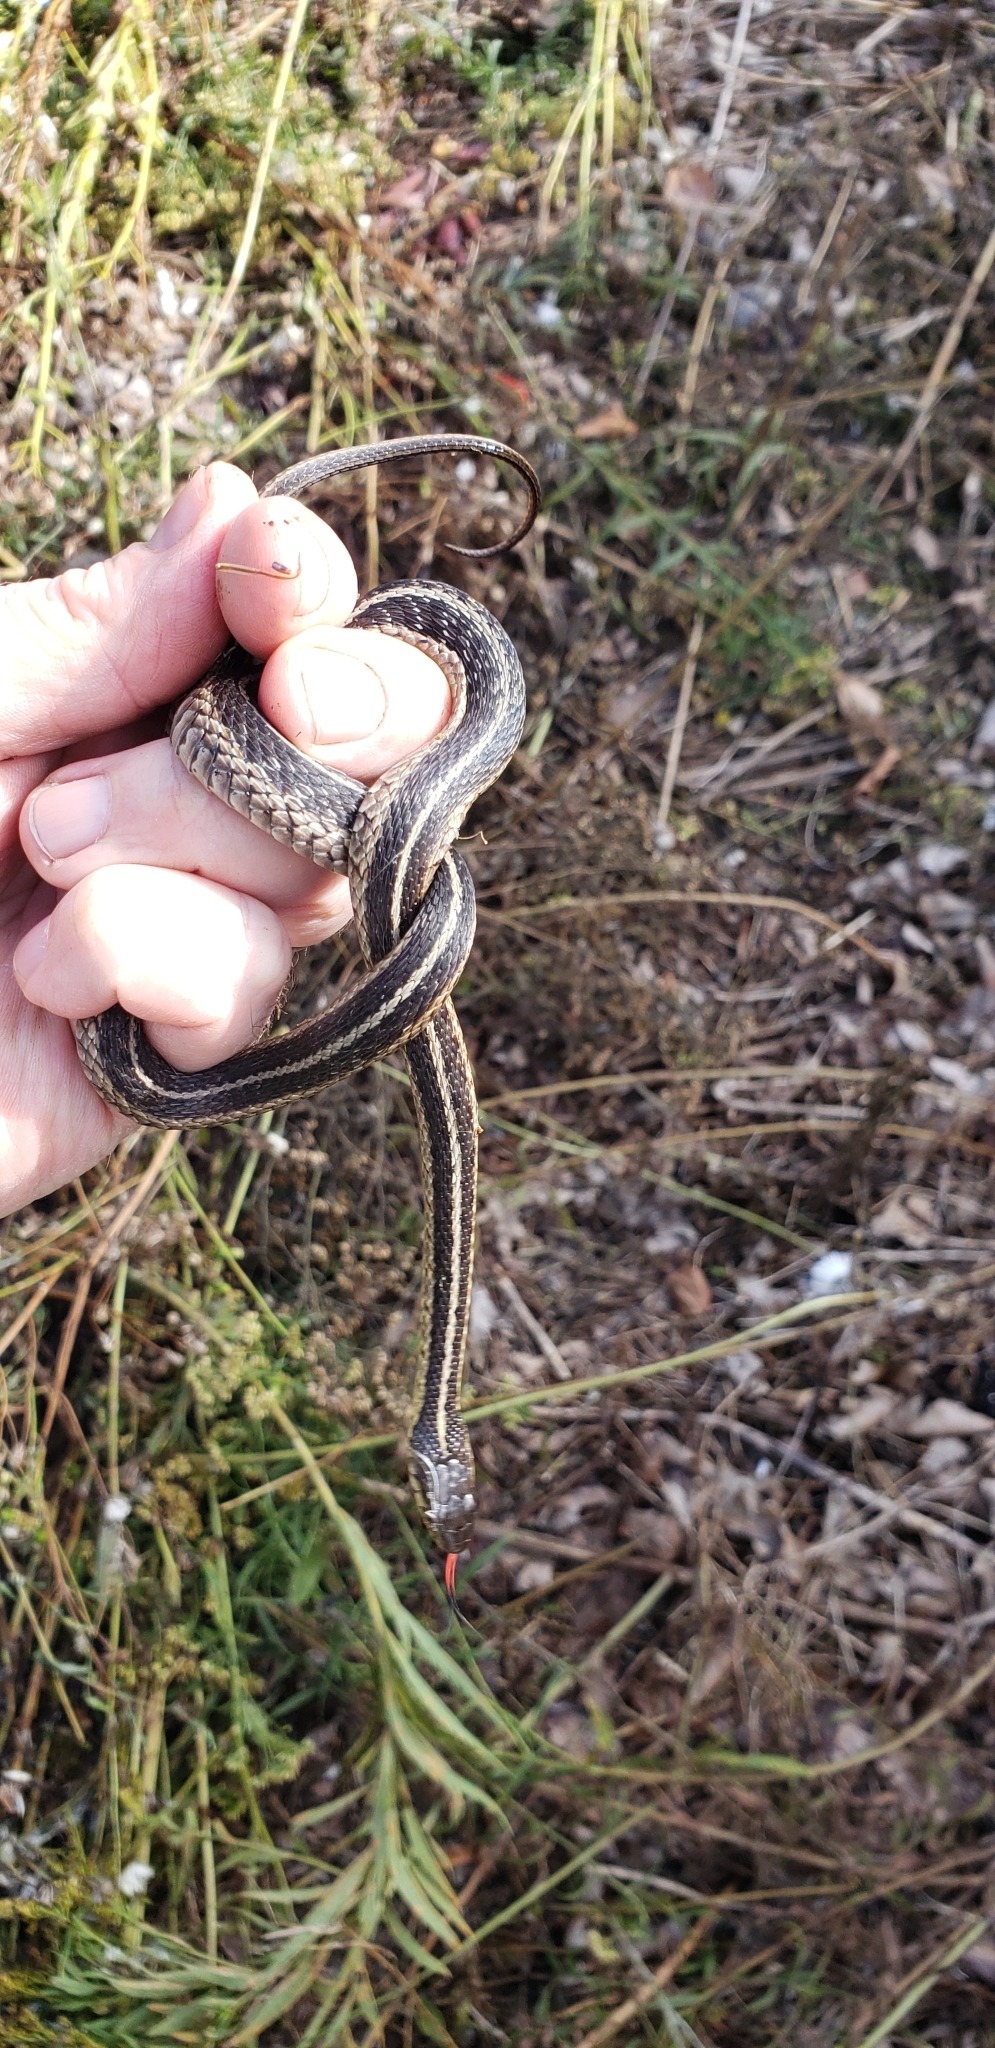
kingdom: Animalia
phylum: Chordata
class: Squamata
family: Colubridae
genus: Thamnophis
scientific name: Thamnophis sirtalis
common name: Common garter snake
